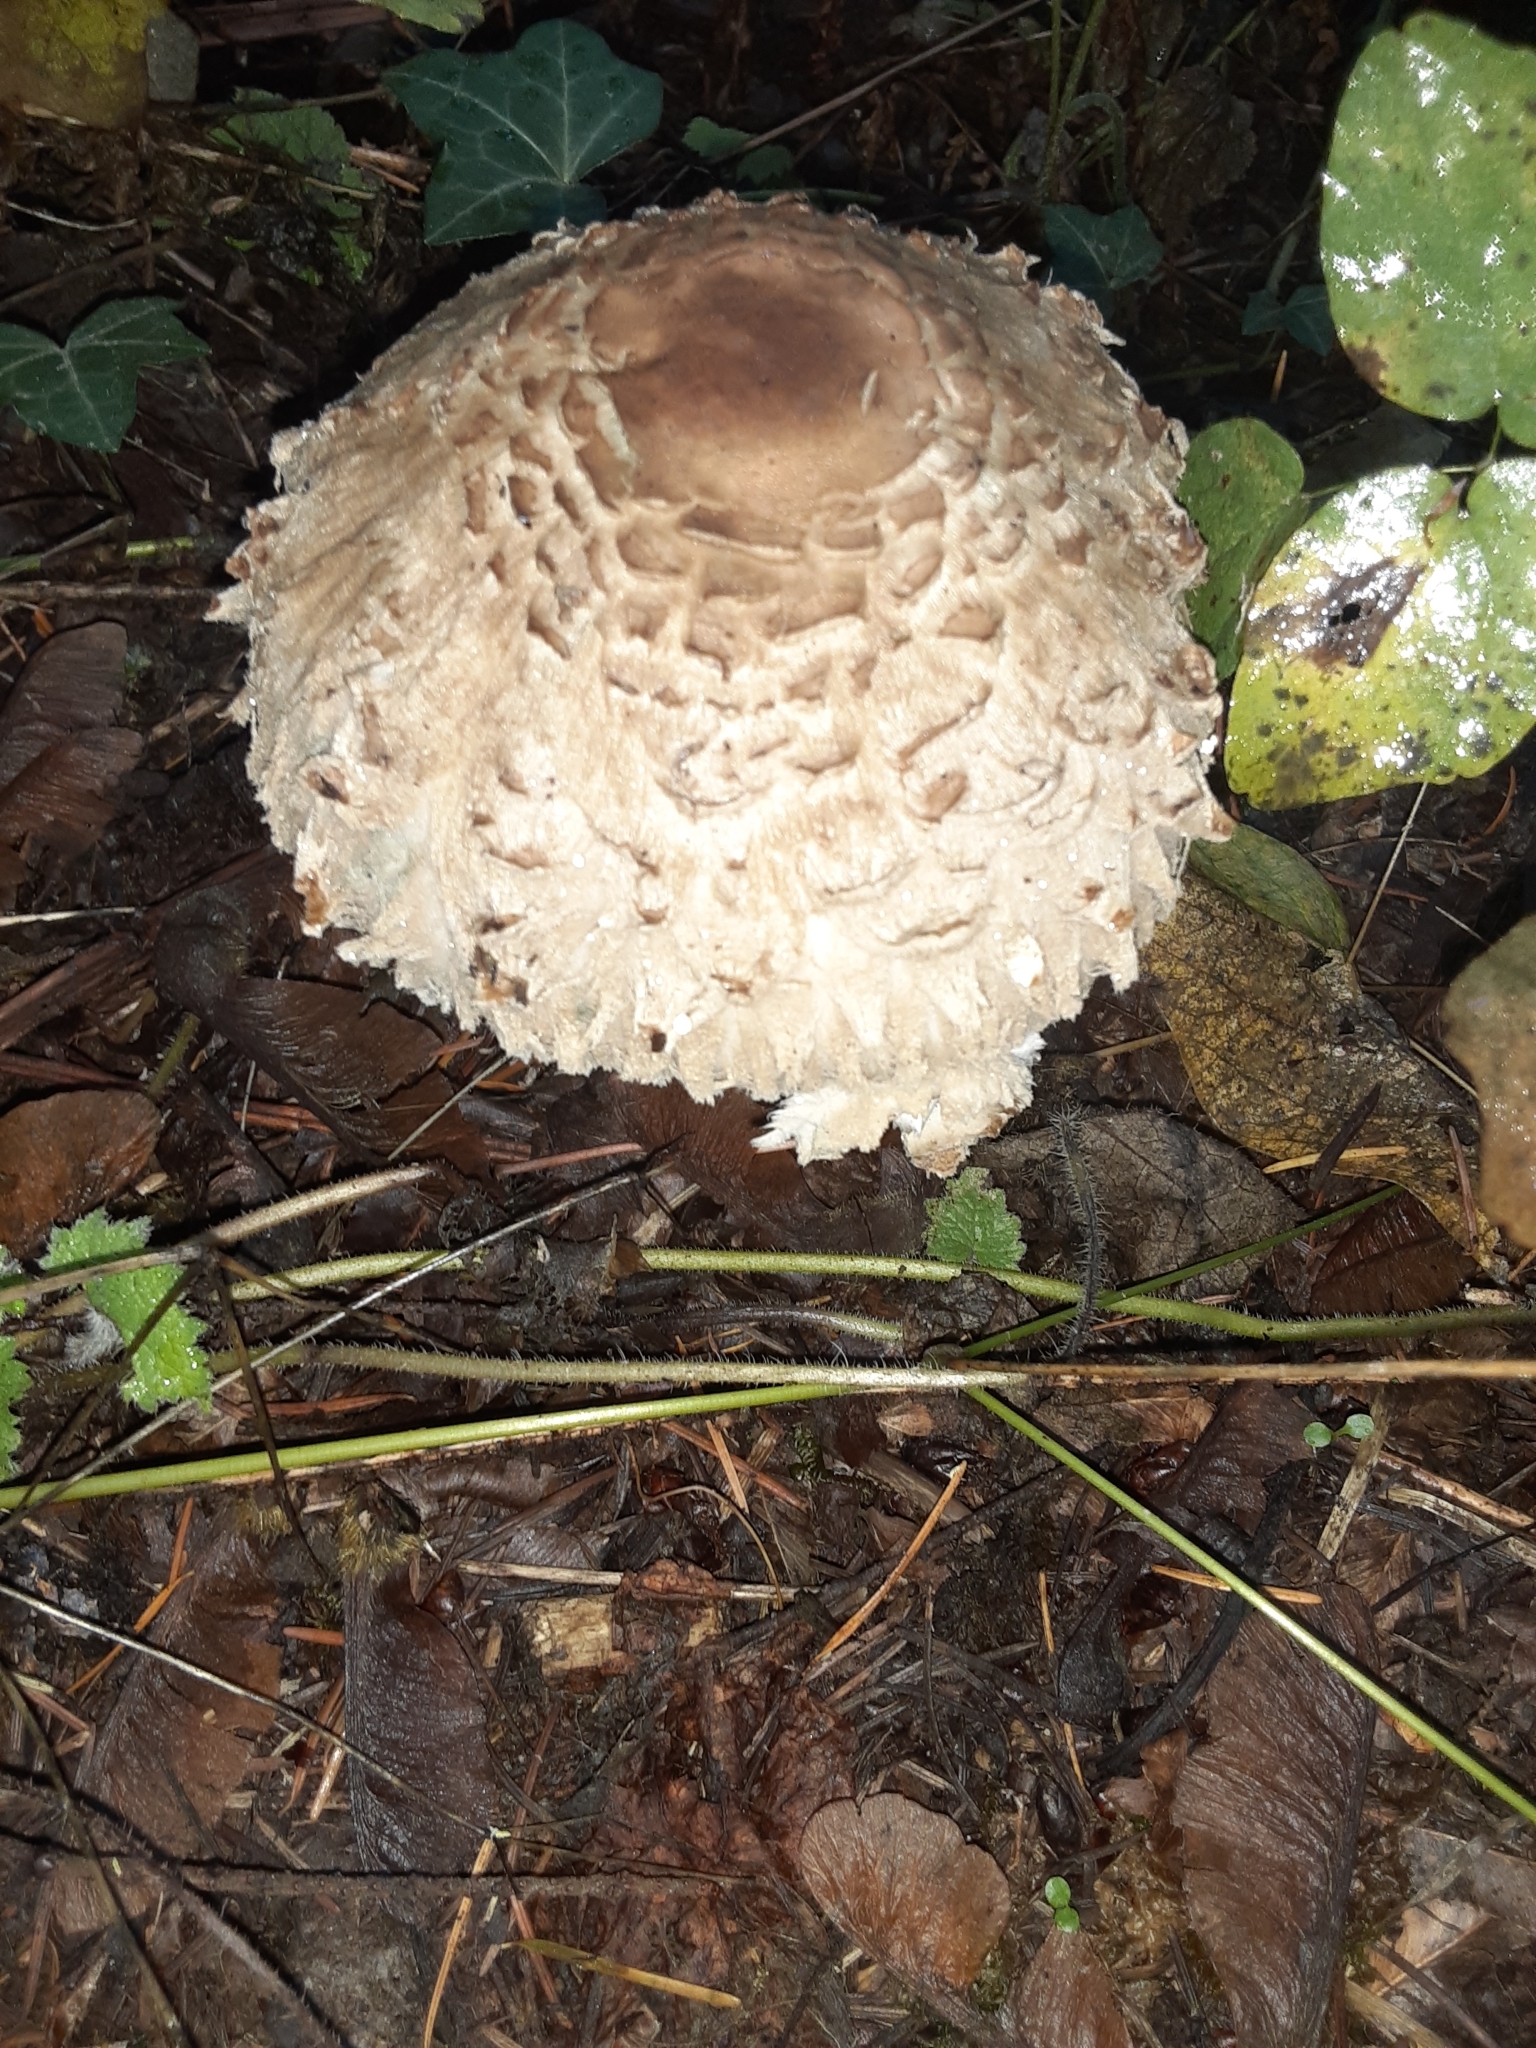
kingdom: Fungi
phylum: Basidiomycota
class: Agaricomycetes
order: Agaricales
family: Agaricaceae
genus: Chlorophyllum
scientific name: Chlorophyllum olivieri
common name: Conifer parasol
